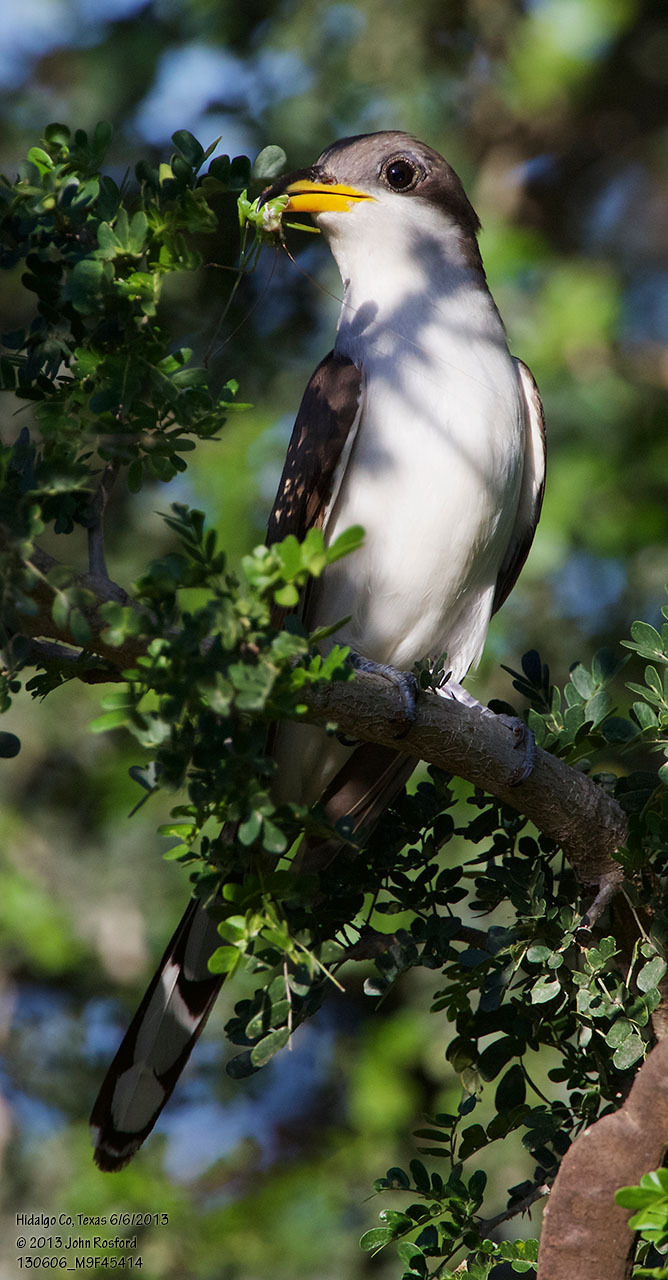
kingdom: Animalia
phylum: Chordata
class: Aves
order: Cuculiformes
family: Cuculidae
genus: Coccyzus
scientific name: Coccyzus americanus
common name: Yellow-billed cuckoo
